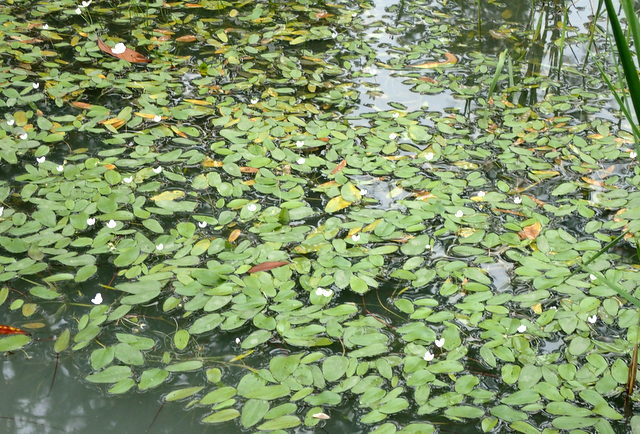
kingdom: Plantae
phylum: Tracheophyta
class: Liliopsida
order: Alismatales
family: Alismataceae
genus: Sagittaria
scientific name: Sagittaria filiformis
